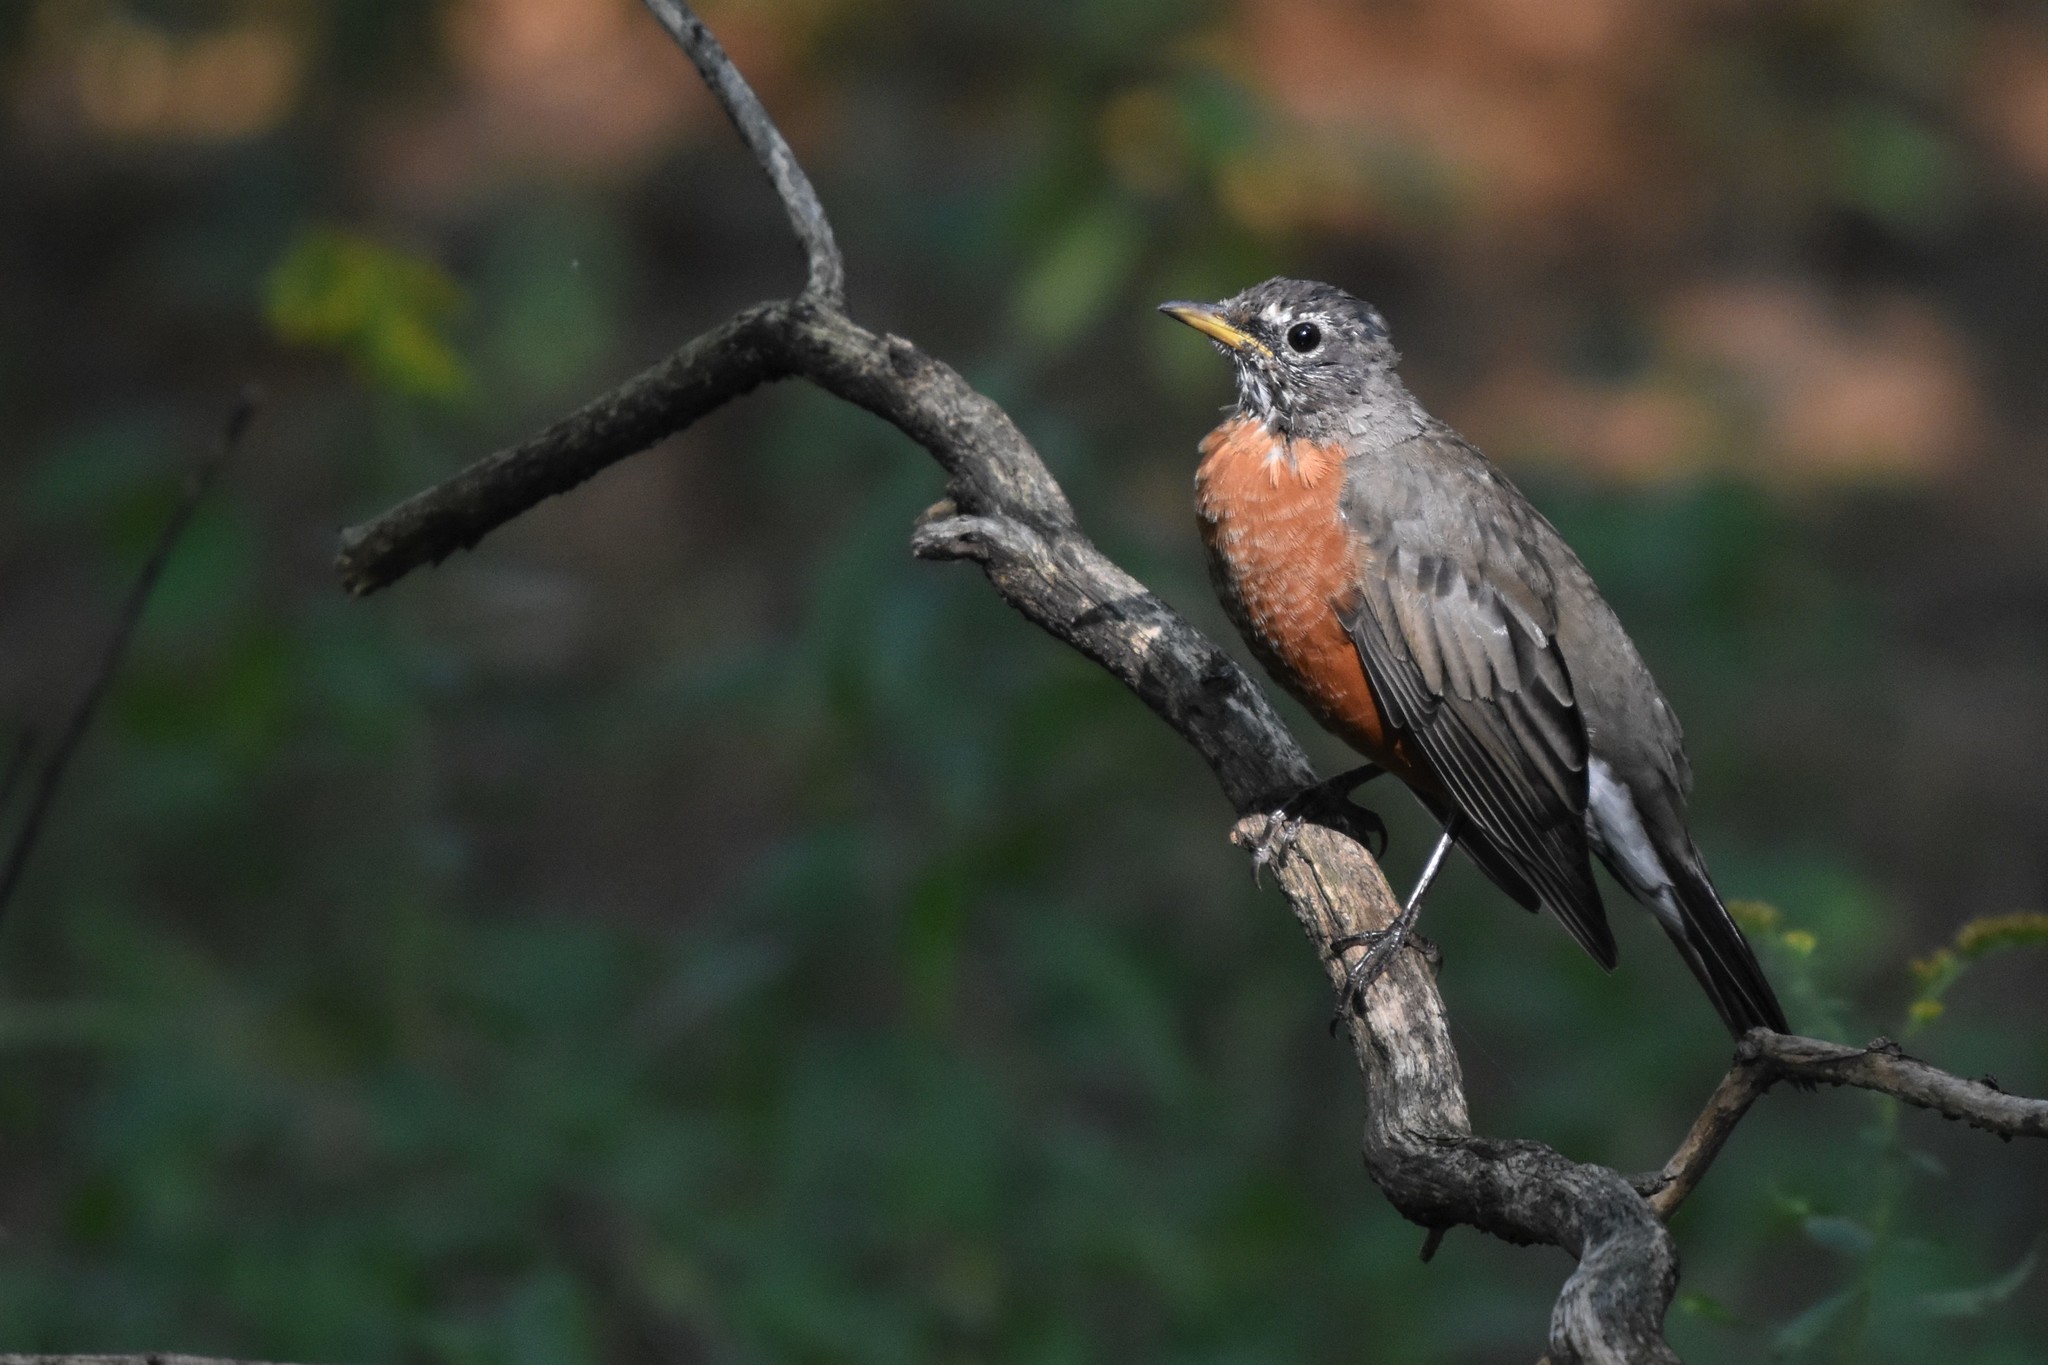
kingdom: Animalia
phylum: Chordata
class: Aves
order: Passeriformes
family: Turdidae
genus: Turdus
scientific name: Turdus migratorius
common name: American robin
